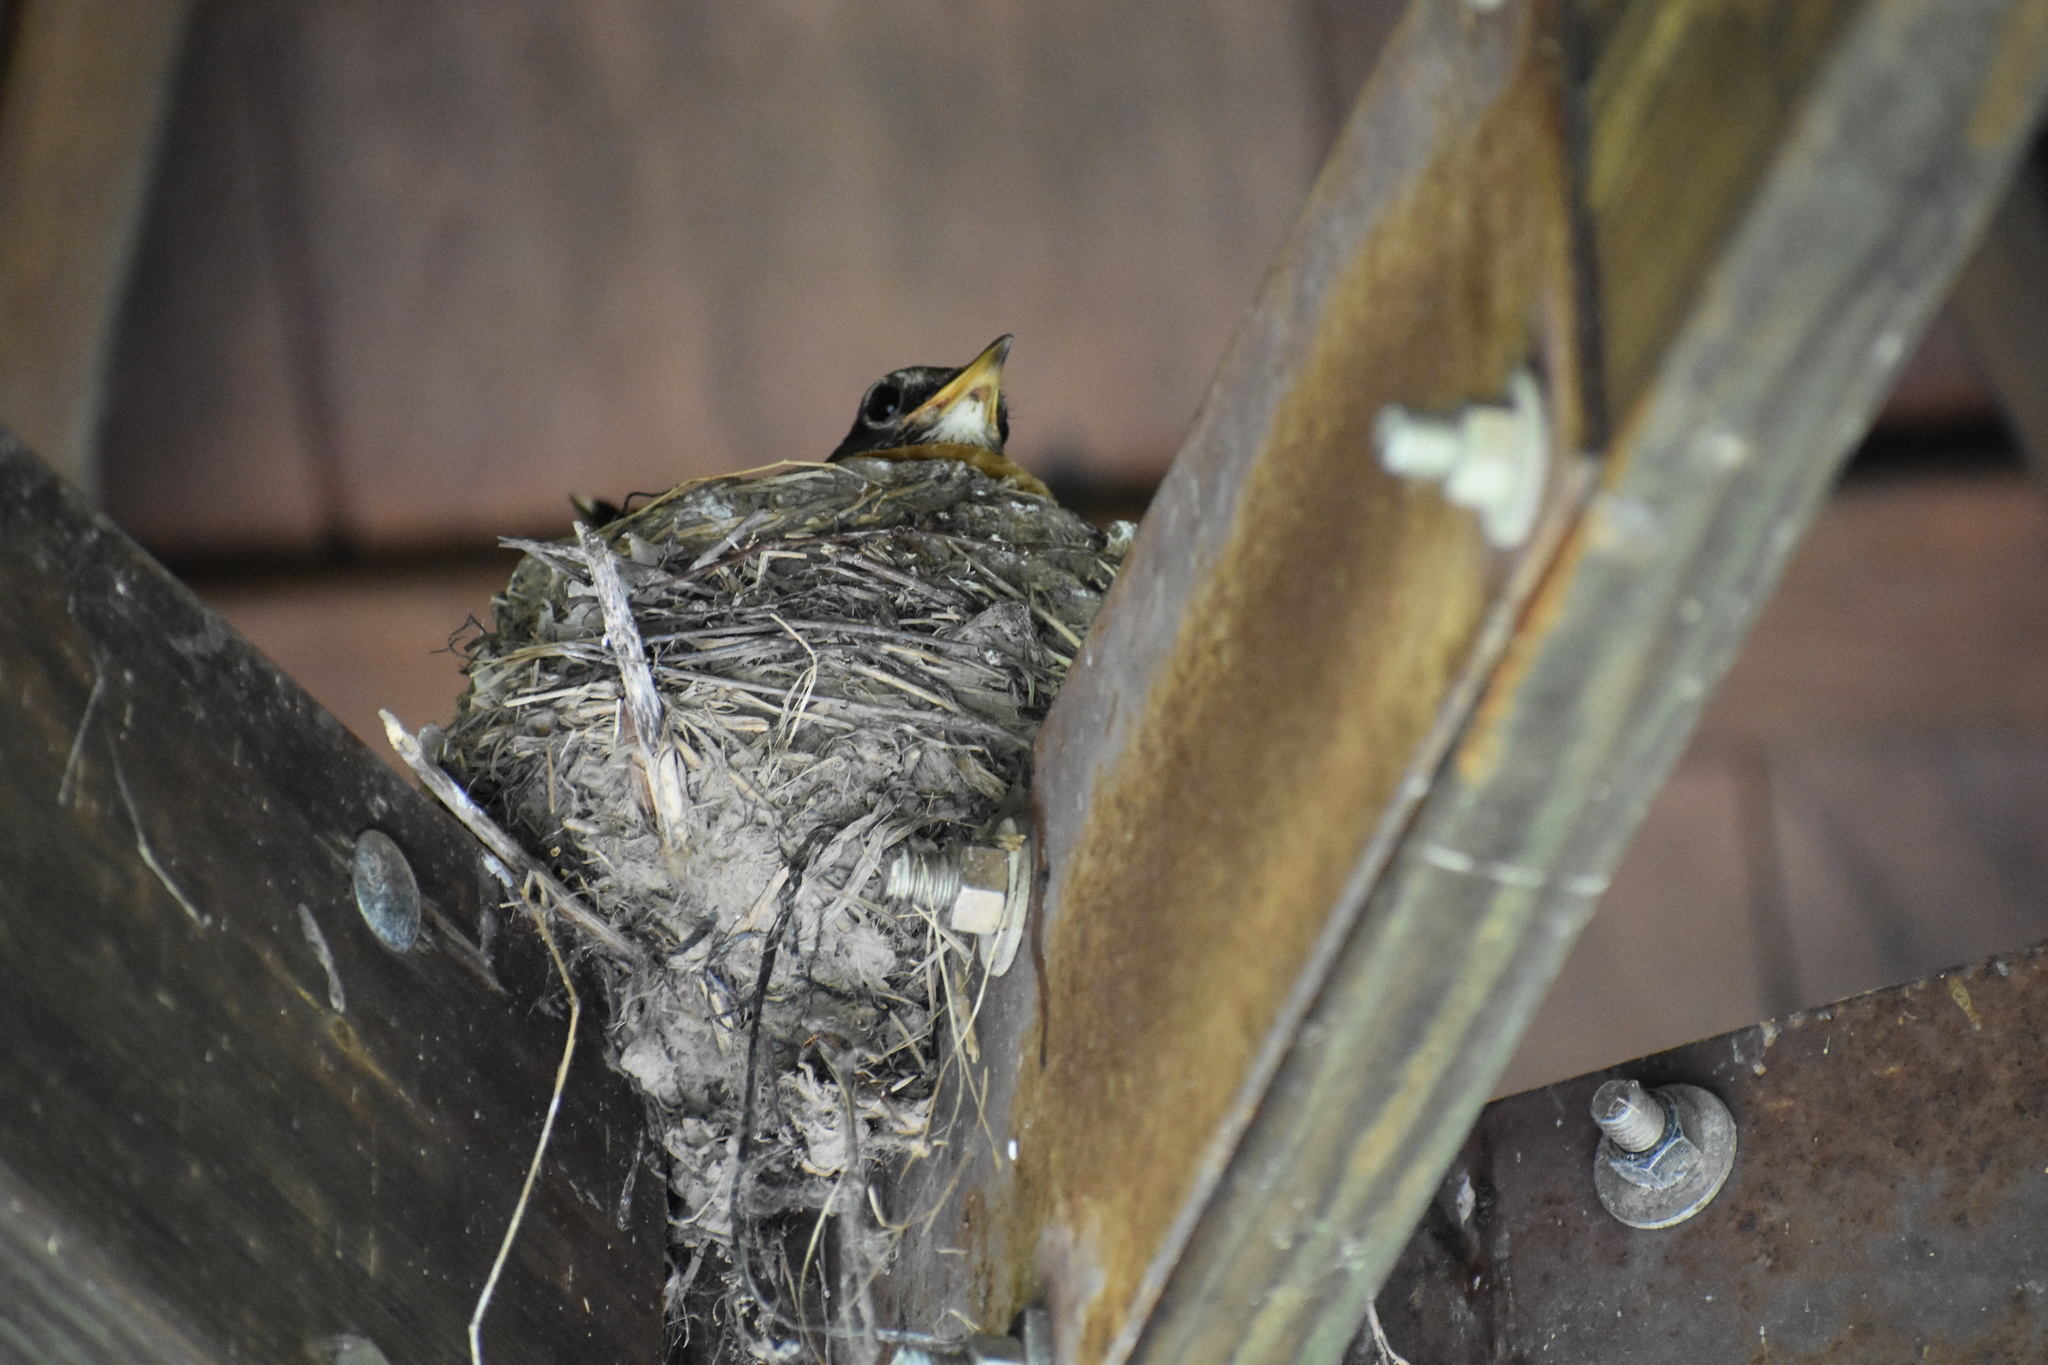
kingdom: Animalia
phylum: Chordata
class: Aves
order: Passeriformes
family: Turdidae
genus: Turdus
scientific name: Turdus migratorius
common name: American robin
